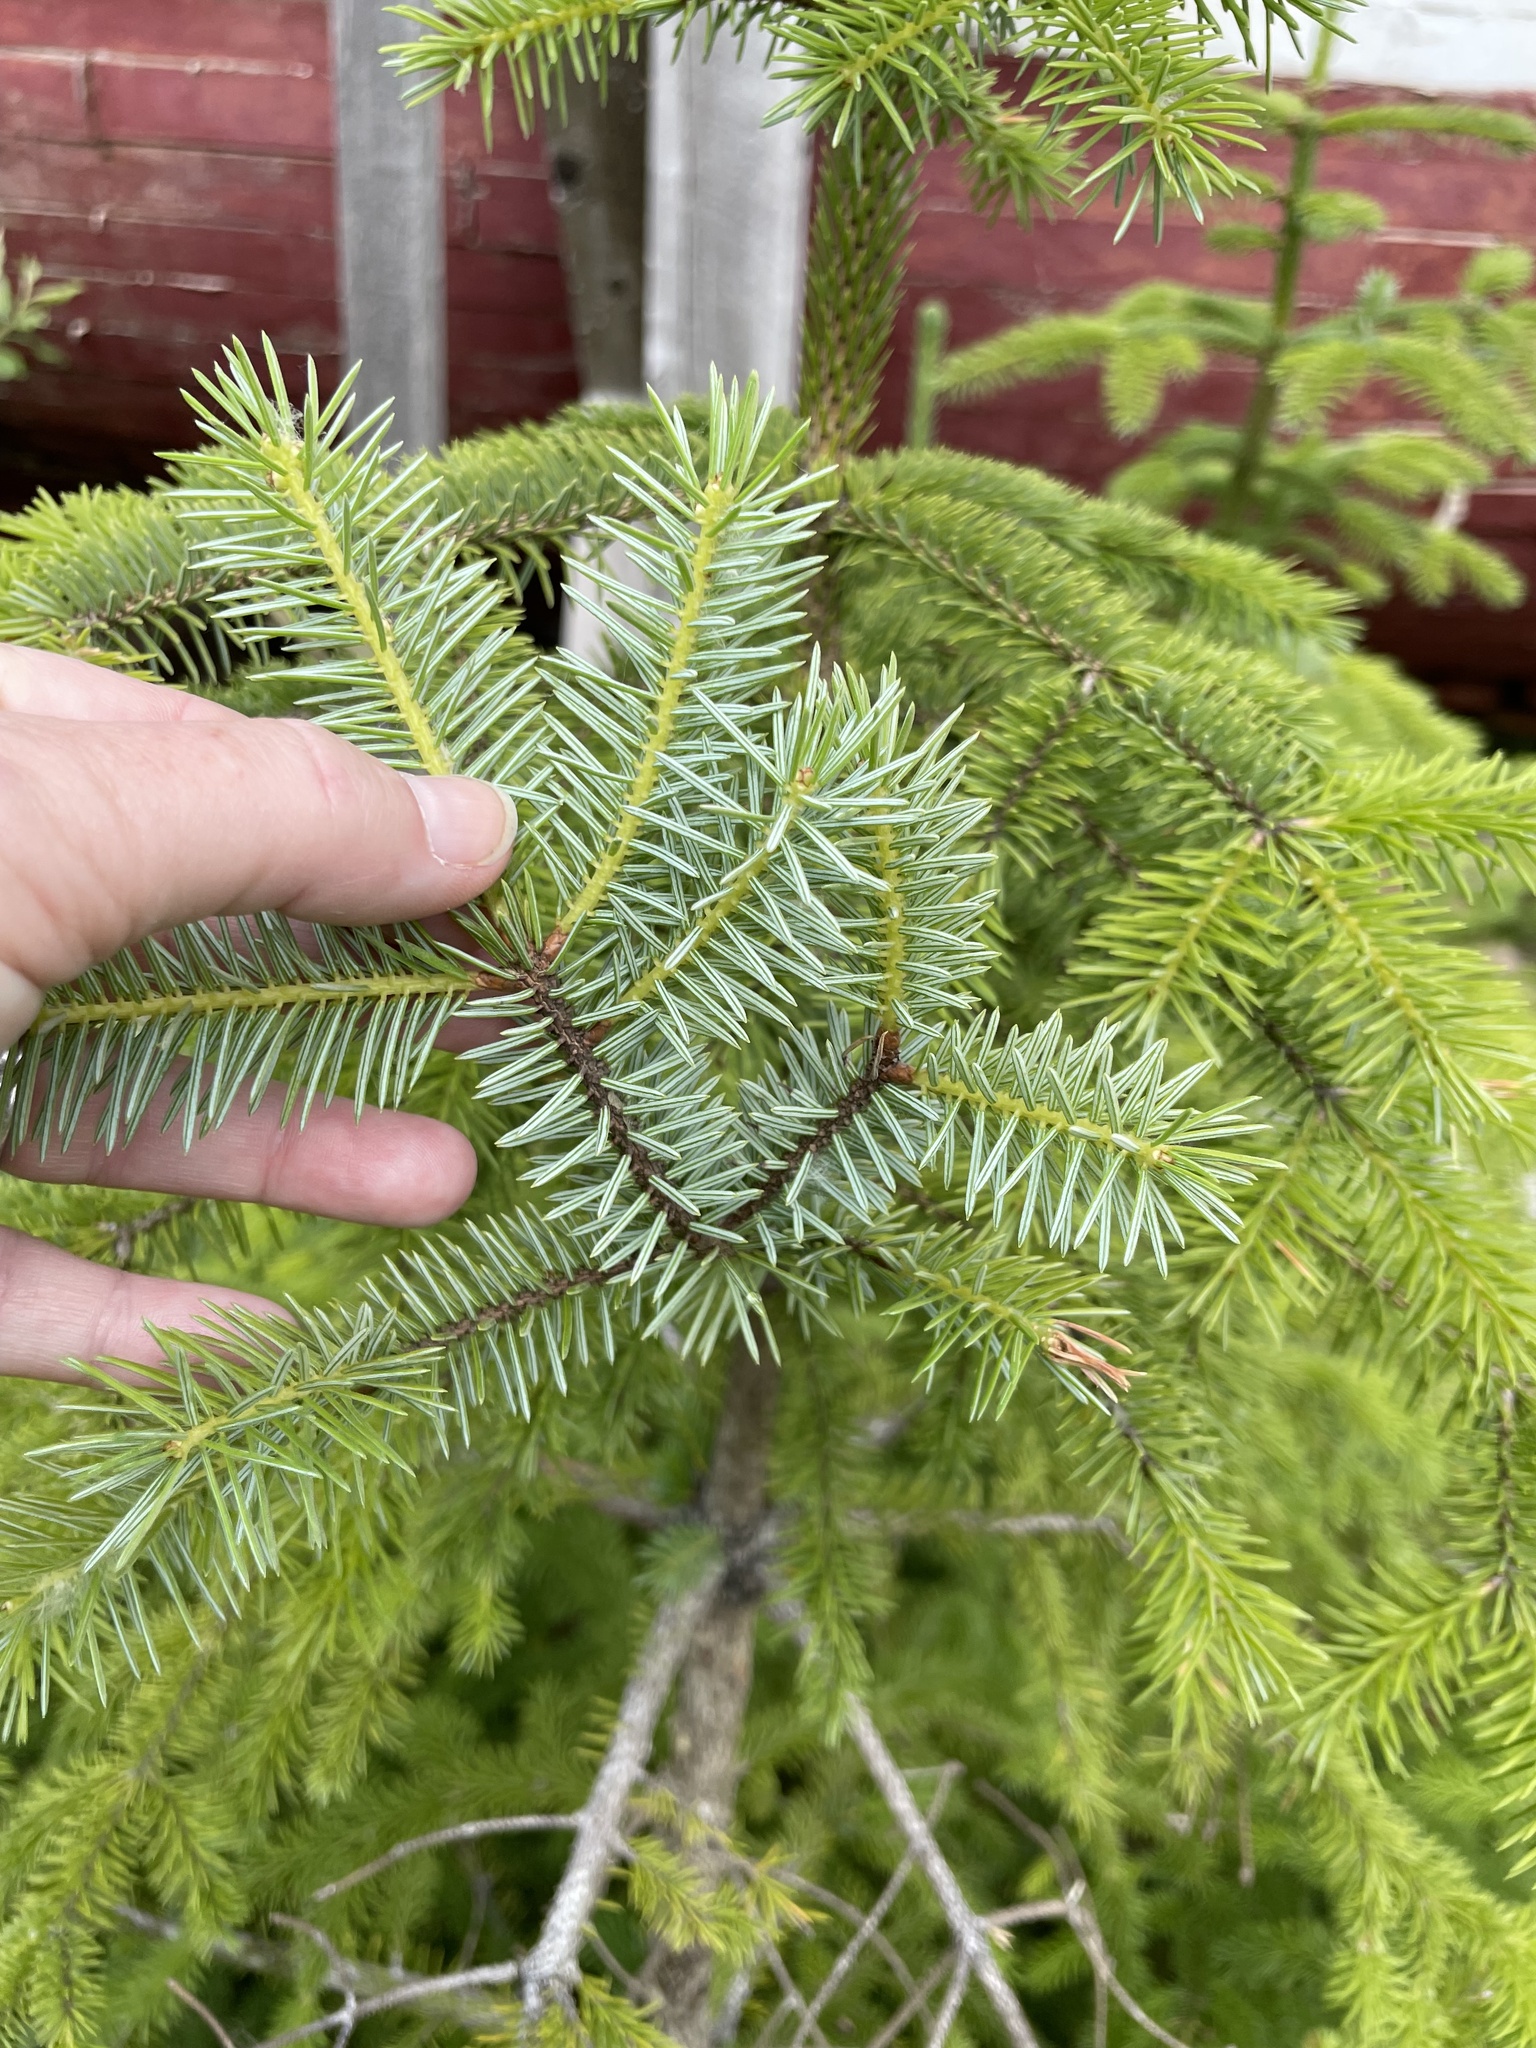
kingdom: Plantae
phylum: Tracheophyta
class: Pinopsida
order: Pinales
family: Pinaceae
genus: Picea
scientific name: Picea sitchensis
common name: Sitka spruce
